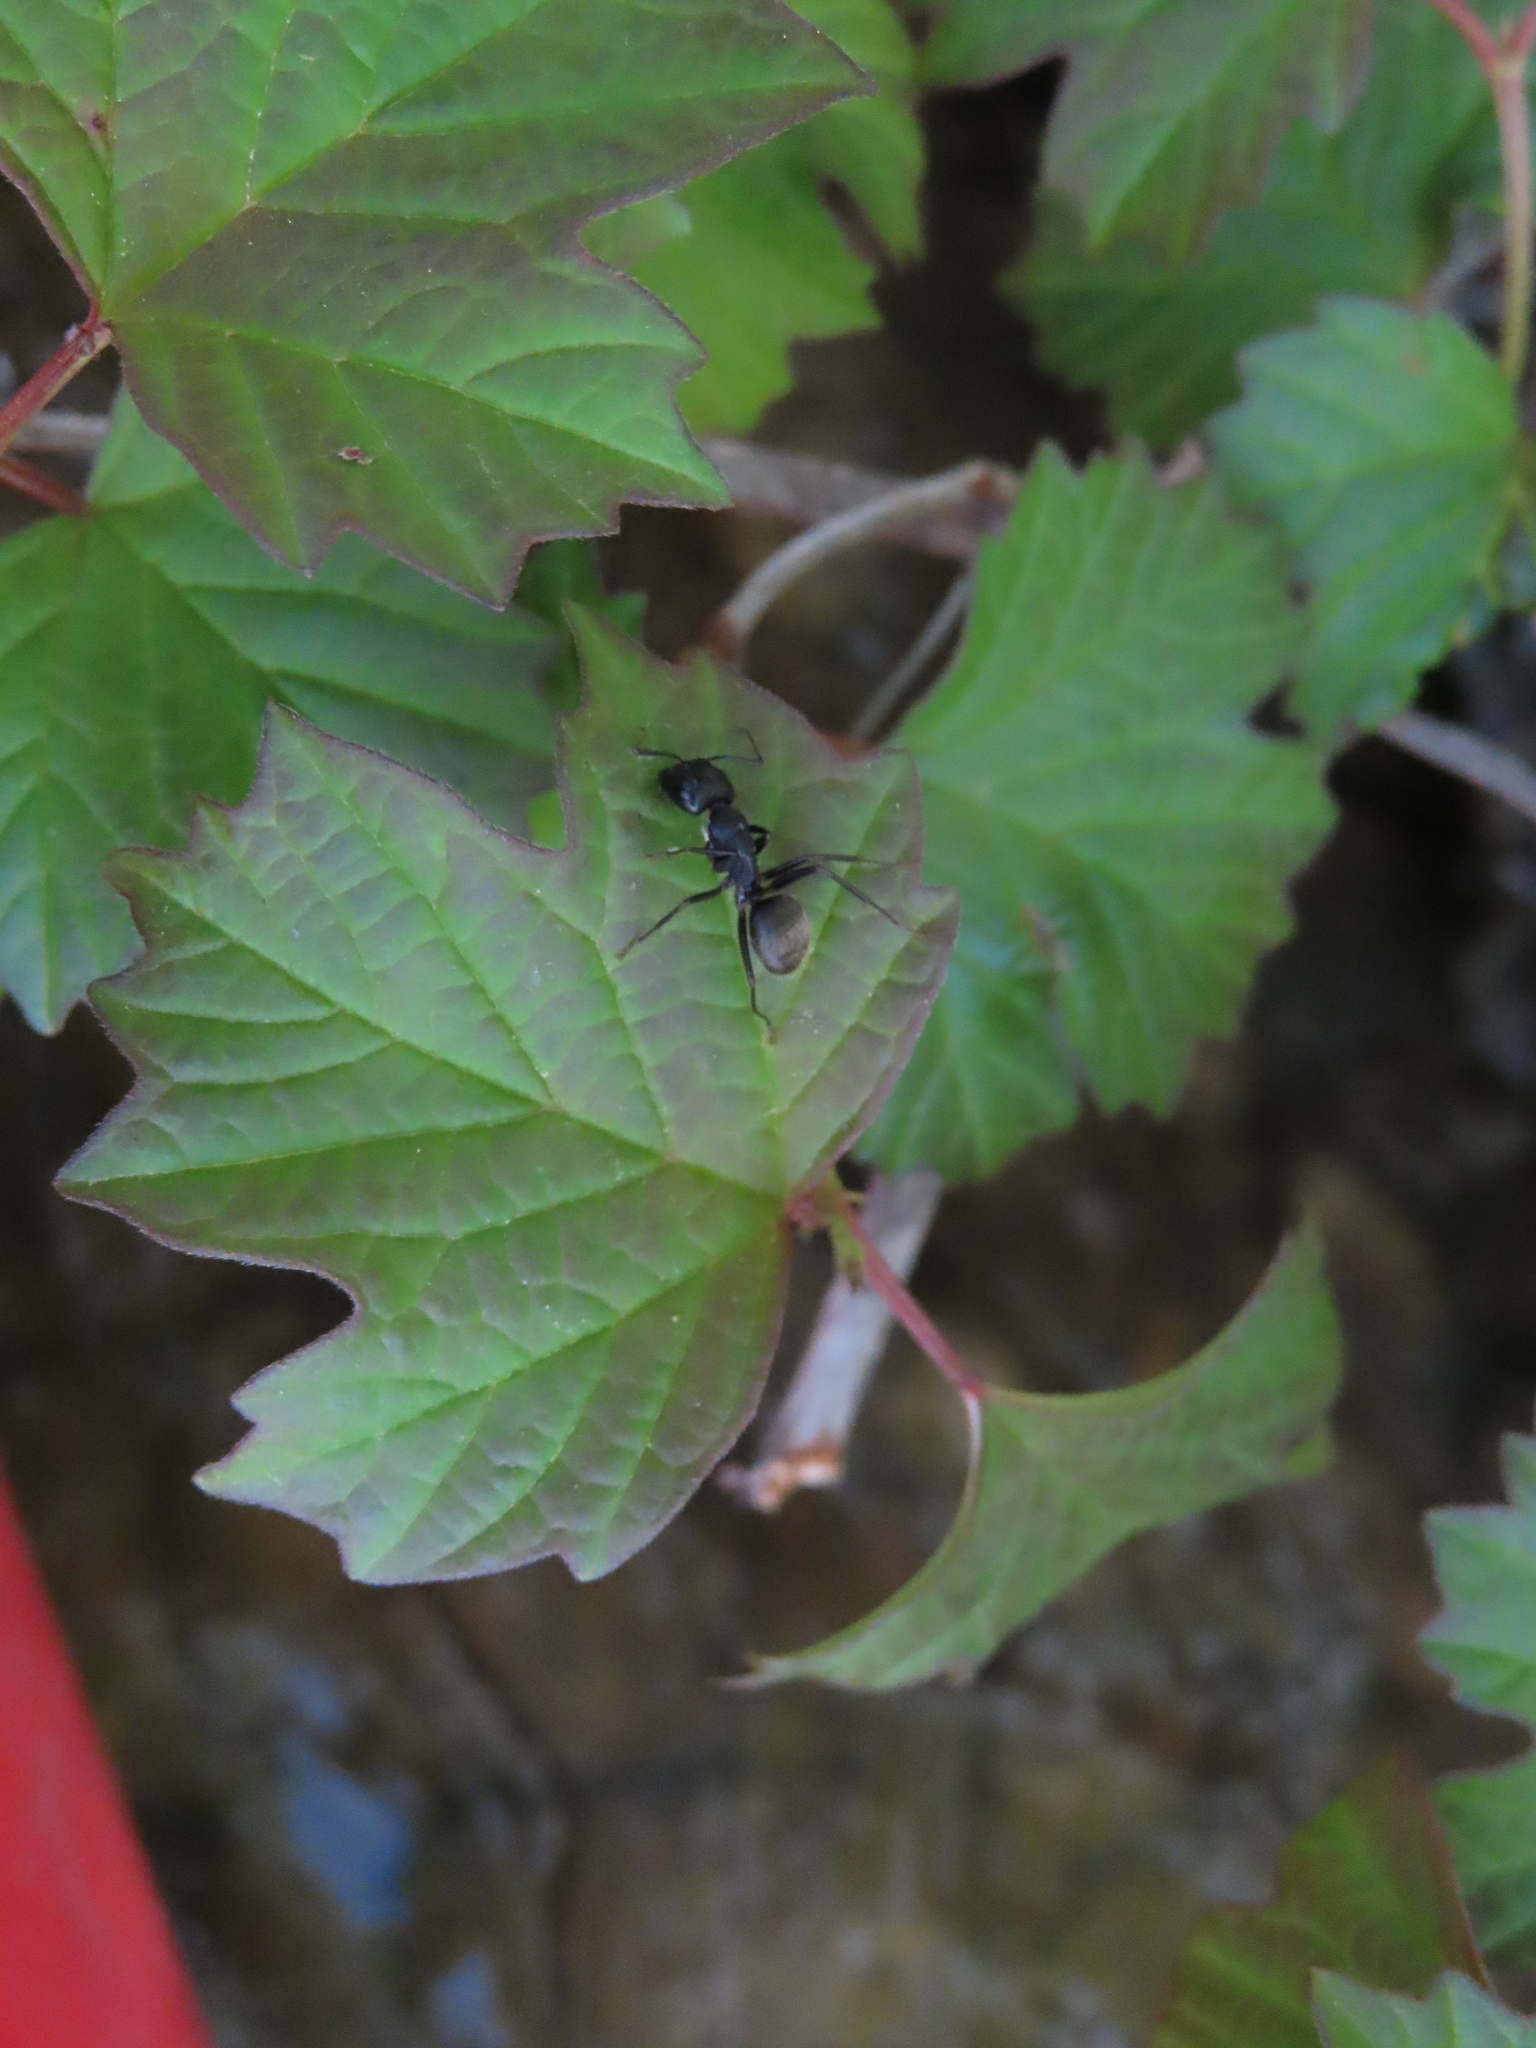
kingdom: Animalia
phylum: Arthropoda
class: Insecta
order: Hymenoptera
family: Formicidae
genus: Camponotus
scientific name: Camponotus pennsylvanicus
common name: Black carpenter ant
